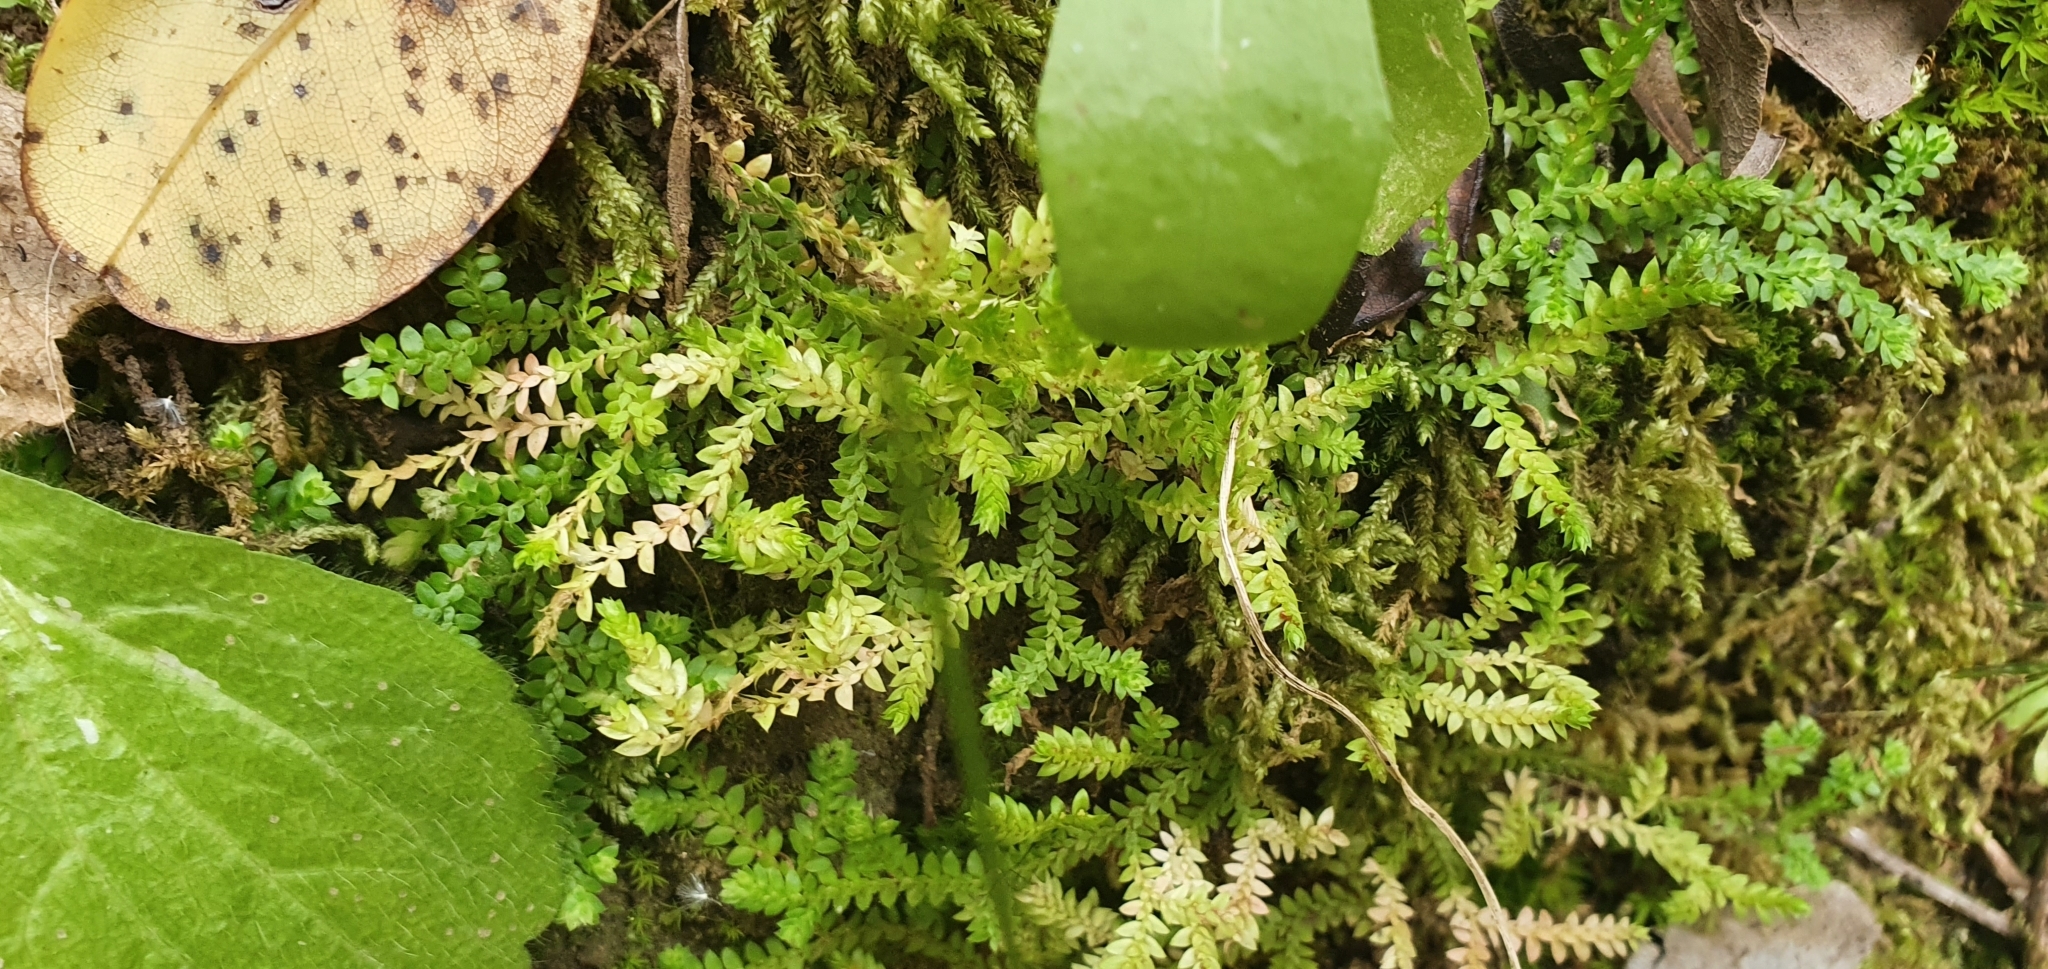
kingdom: Plantae
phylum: Tracheophyta
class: Lycopodiopsida
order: Selaginellales
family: Selaginellaceae
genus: Selaginella
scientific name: Selaginella denticulata
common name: Toothed-leaved clubmoss
